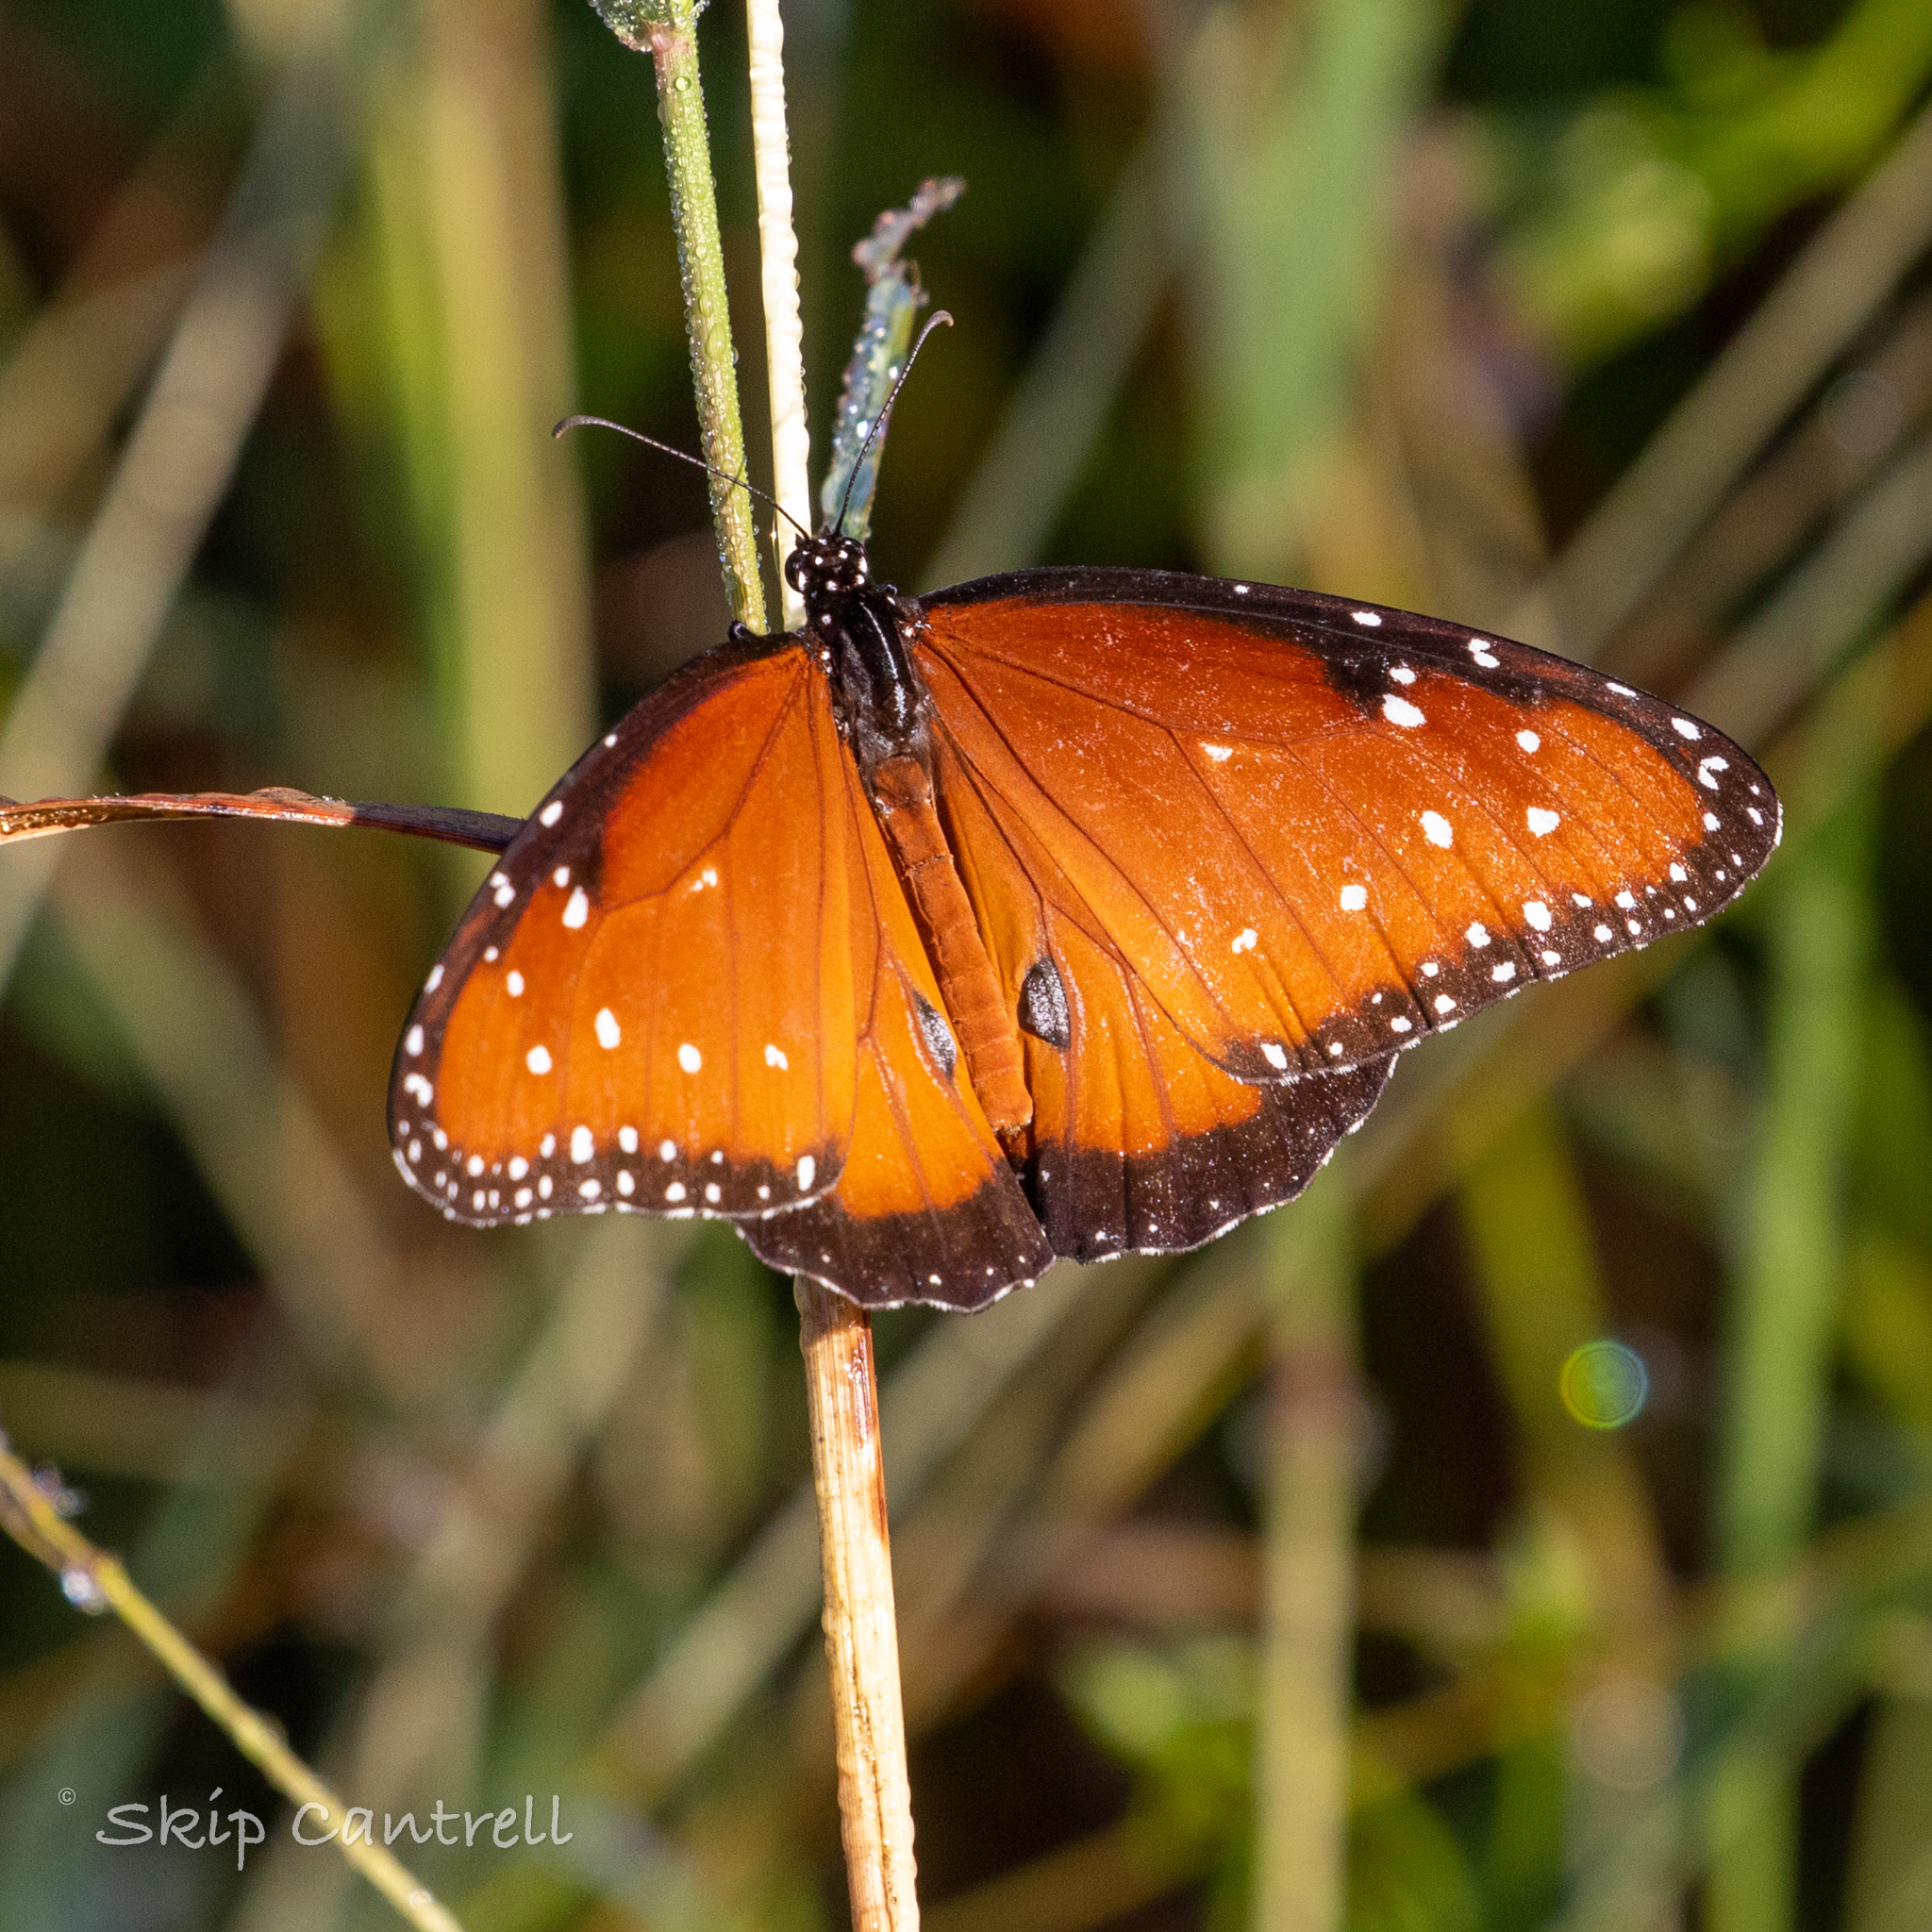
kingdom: Animalia
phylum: Arthropoda
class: Insecta
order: Lepidoptera
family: Nymphalidae
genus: Danaus
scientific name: Danaus gilippus
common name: Queen
